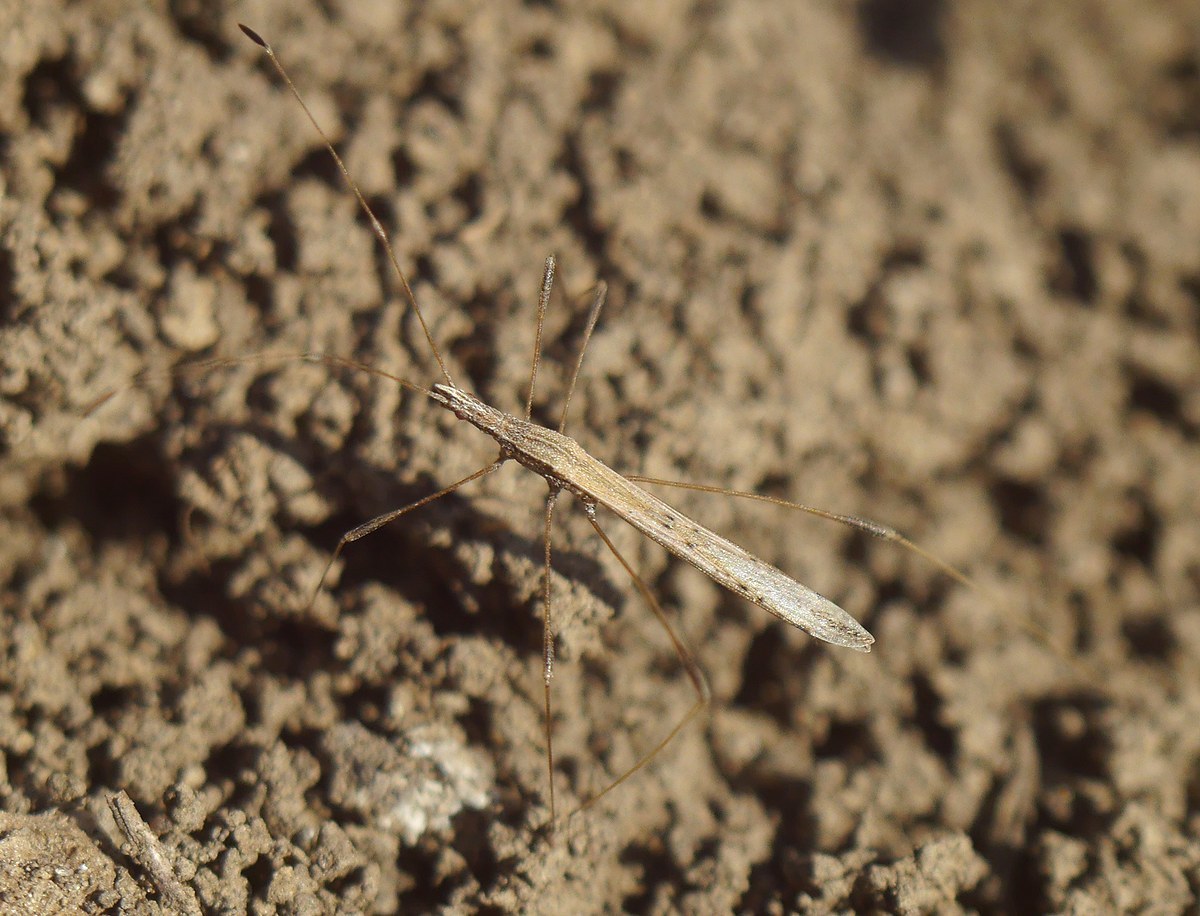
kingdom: Animalia
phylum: Arthropoda
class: Insecta
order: Hemiptera
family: Berytidae
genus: Neides
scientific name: Neides tipularius
